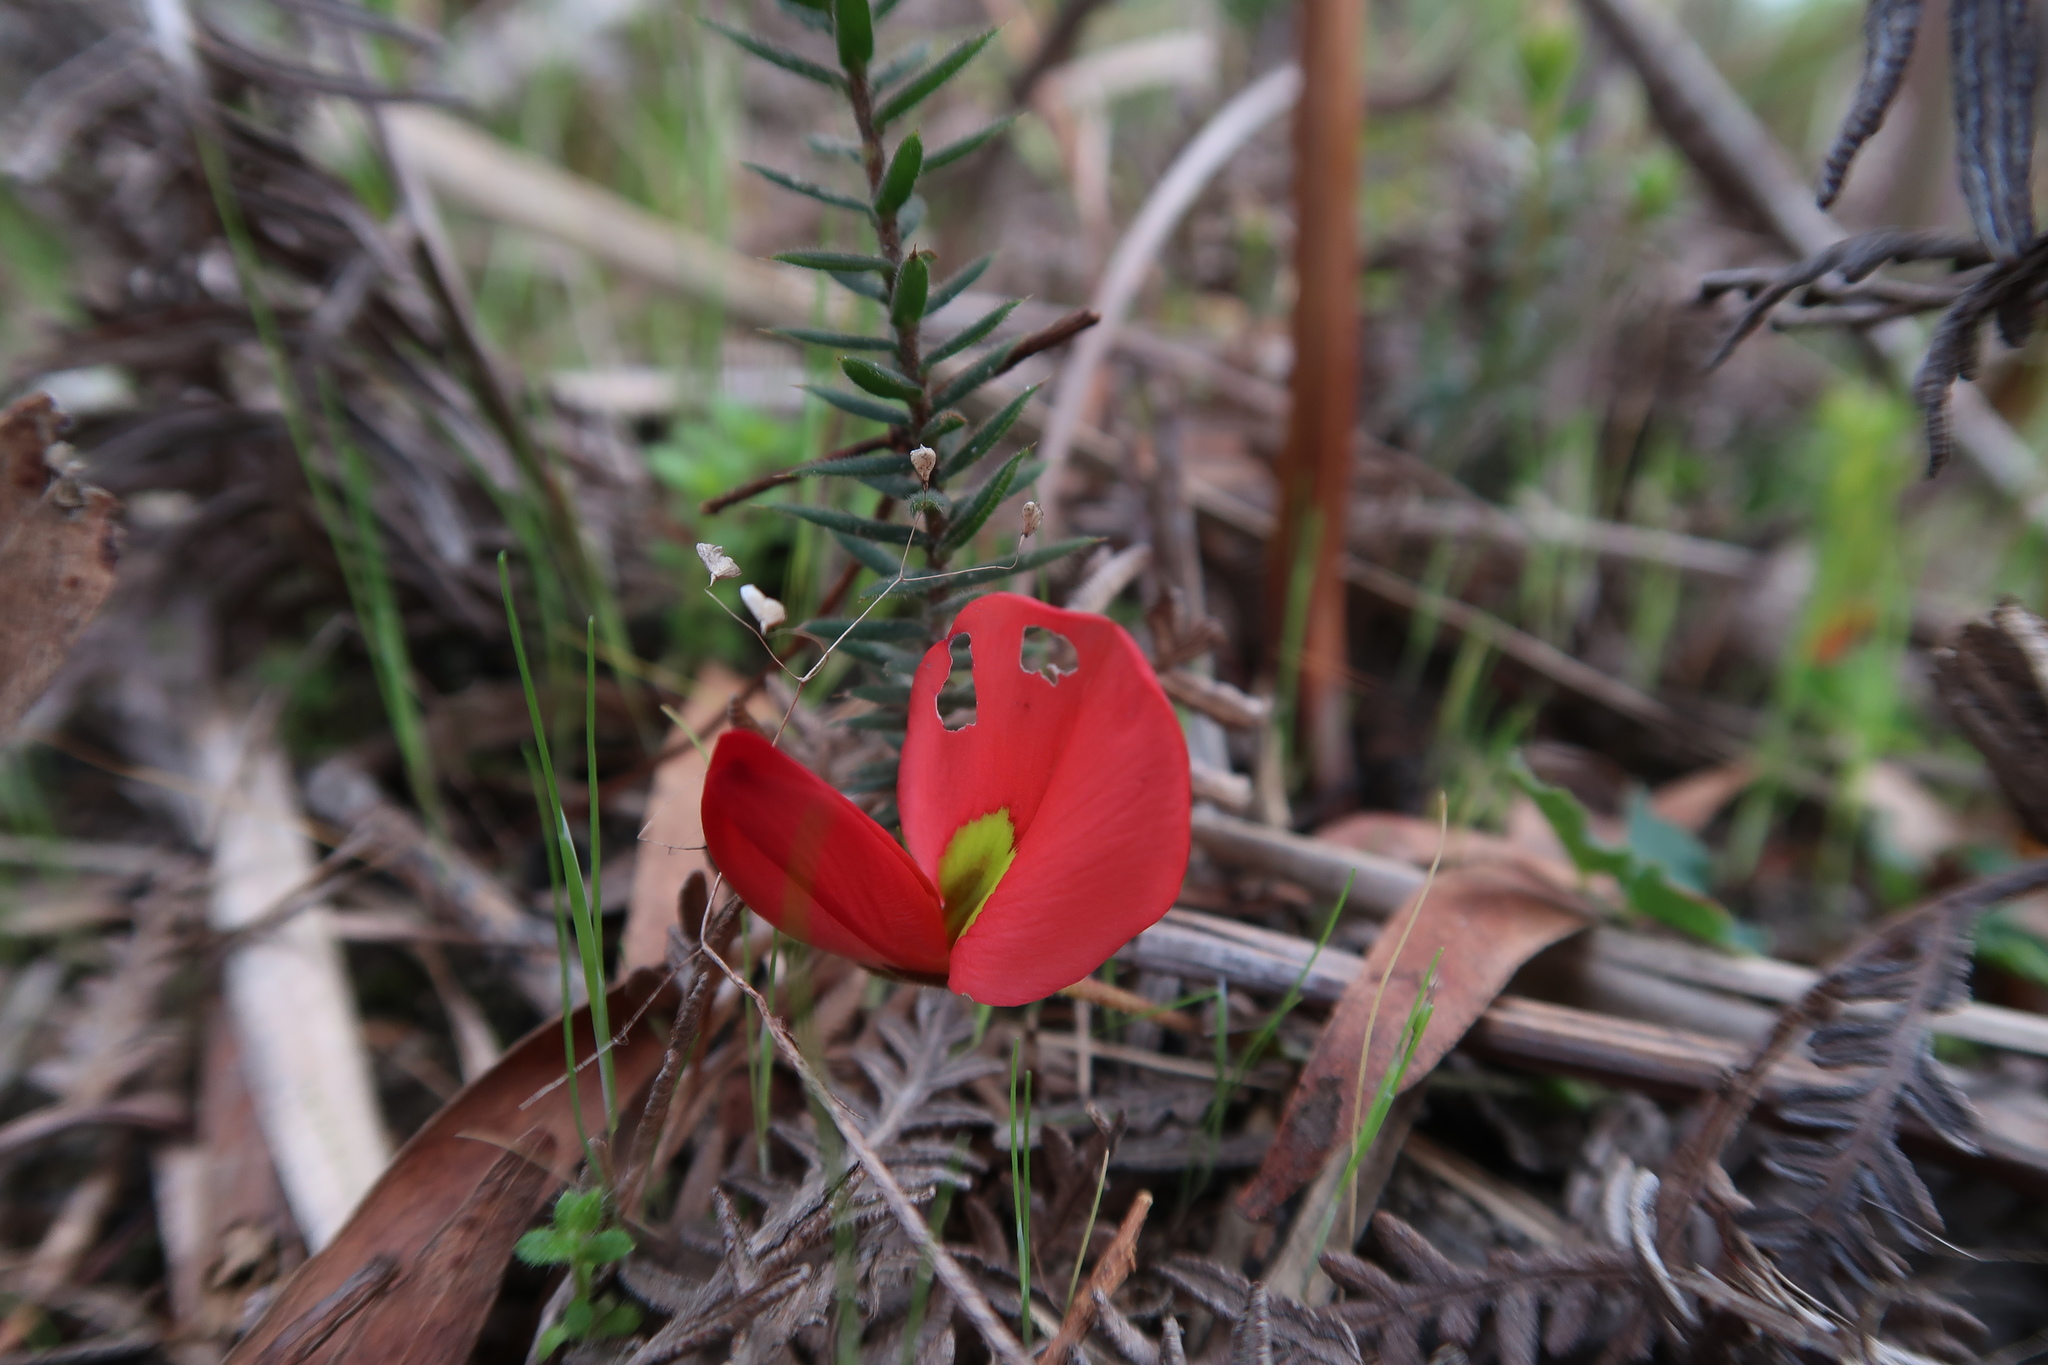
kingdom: Plantae
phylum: Tracheophyta
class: Magnoliopsida
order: Fabales
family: Fabaceae
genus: Kennedia
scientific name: Kennedia prostrata
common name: Running-postman
